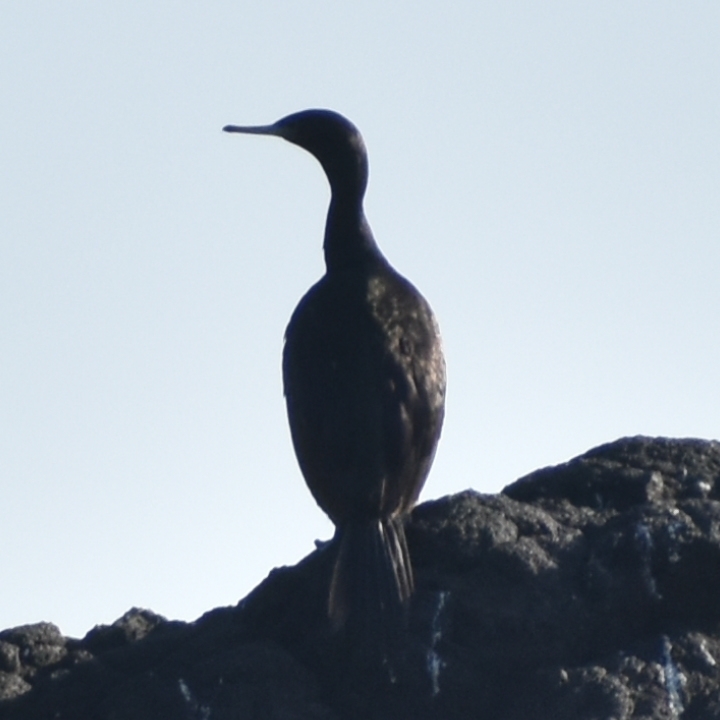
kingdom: Animalia
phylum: Chordata
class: Aves
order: Suliformes
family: Phalacrocoracidae
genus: Phalacrocorax
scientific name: Phalacrocorax pelagicus
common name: Pelagic cormorant
